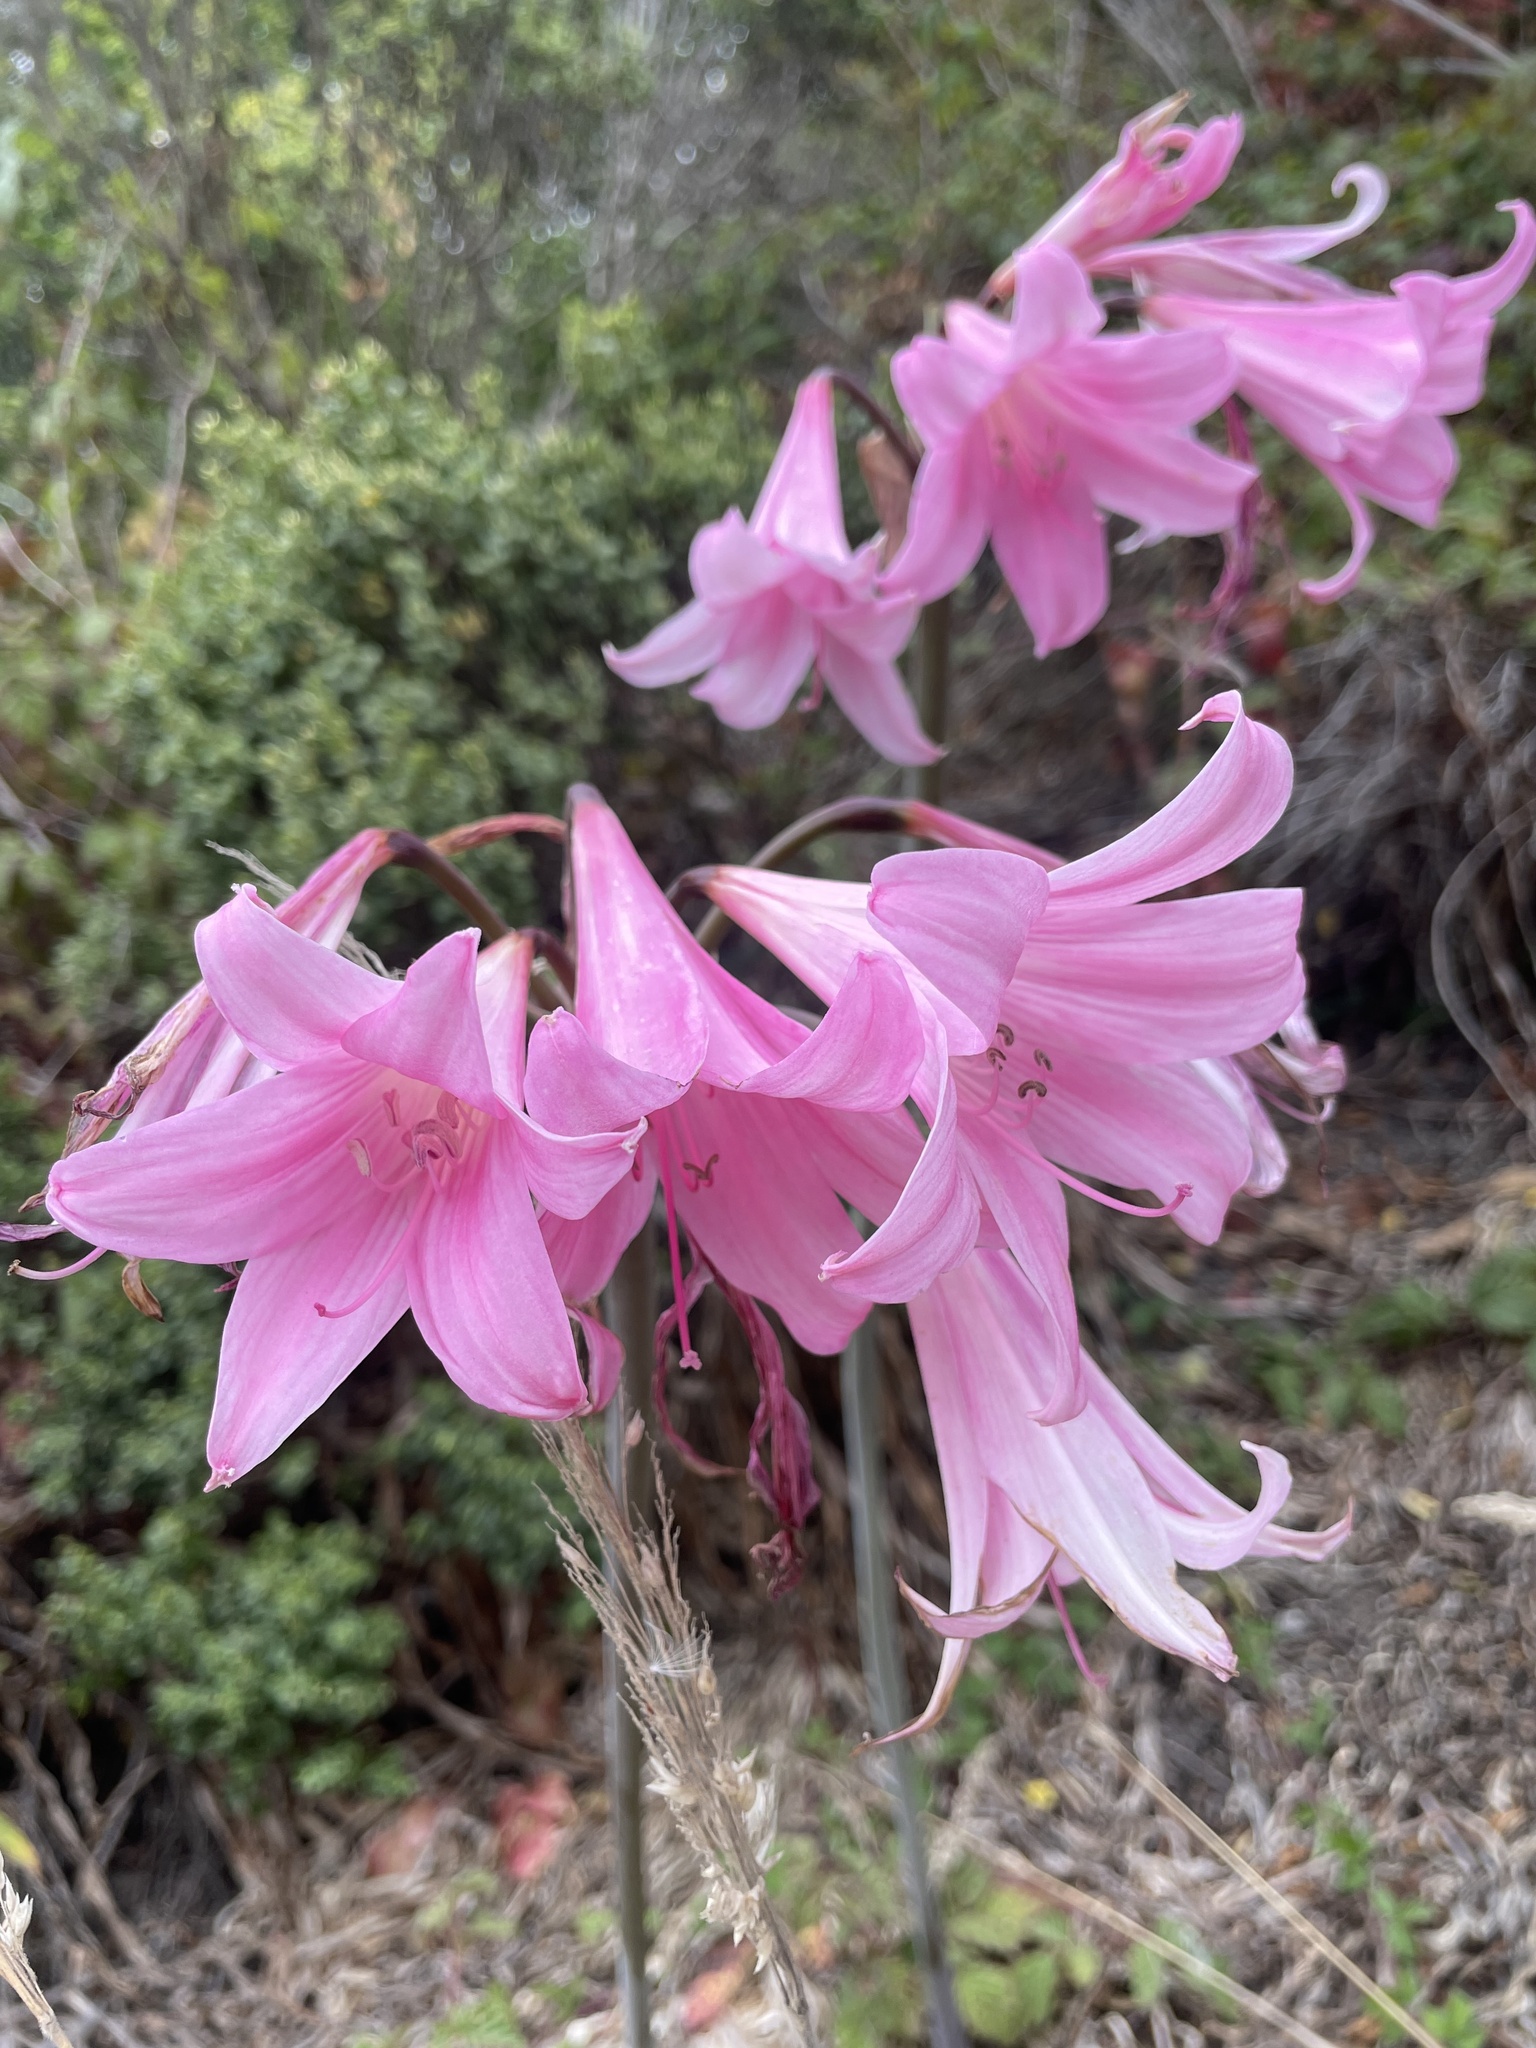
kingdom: Plantae
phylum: Tracheophyta
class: Liliopsida
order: Asparagales
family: Amaryllidaceae
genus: Amaryllis
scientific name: Amaryllis belladonna
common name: Jersey lily
